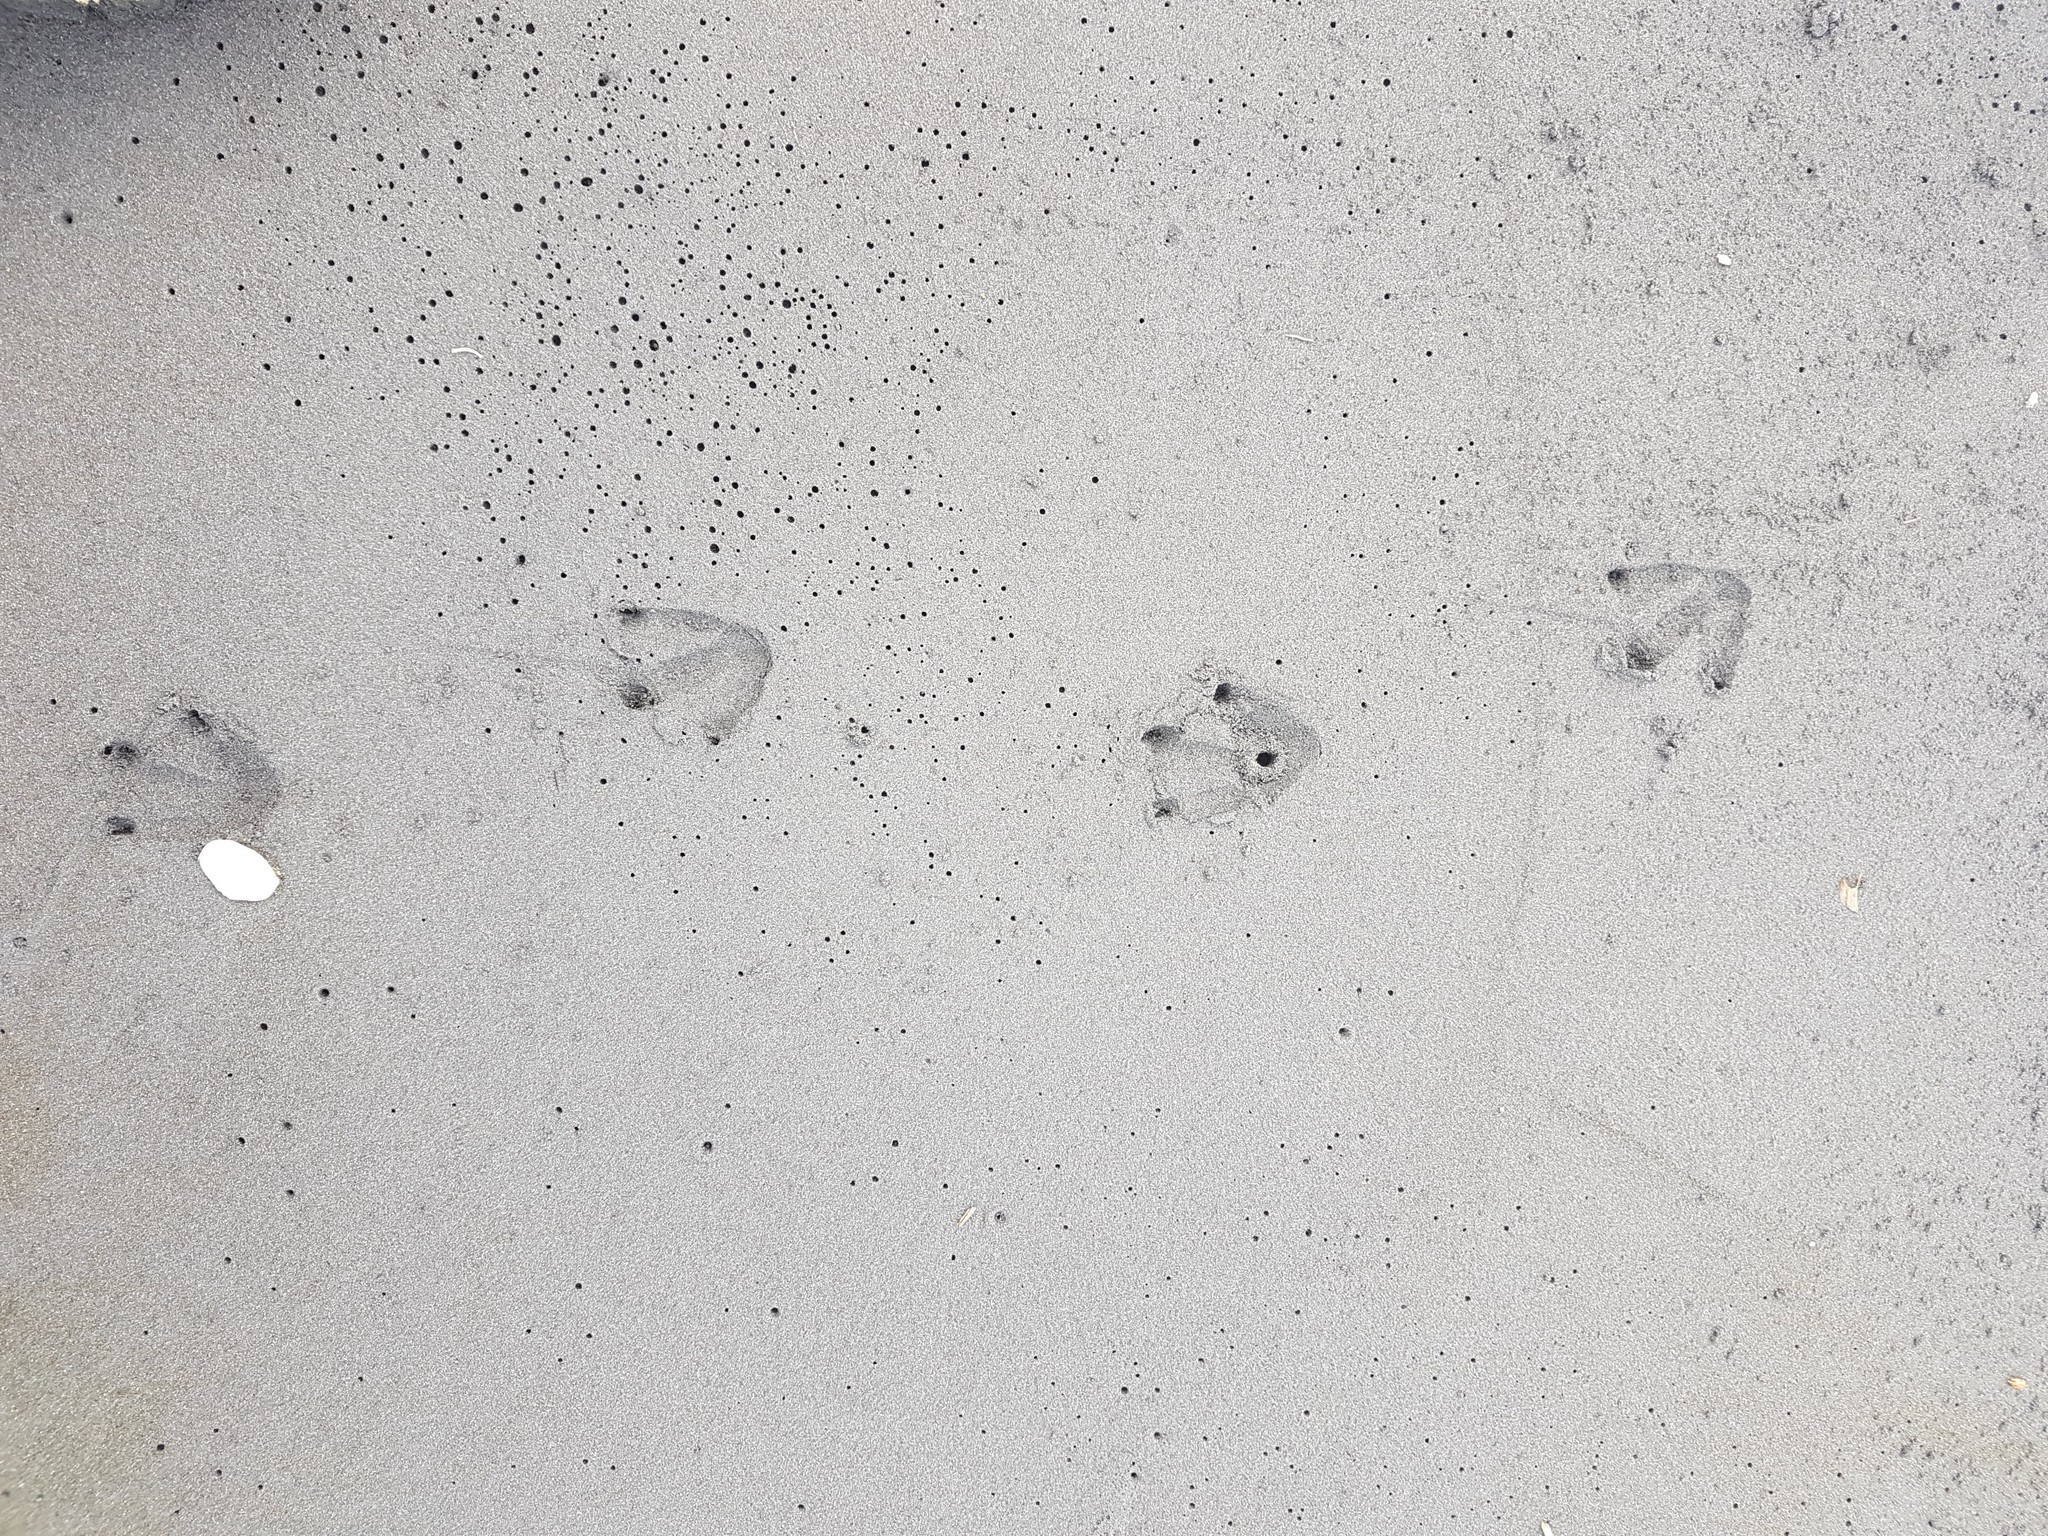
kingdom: Animalia
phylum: Chordata
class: Aves
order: Sphenisciformes
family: Spheniscidae
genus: Eudyptula
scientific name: Eudyptula minor
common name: Little penguin
